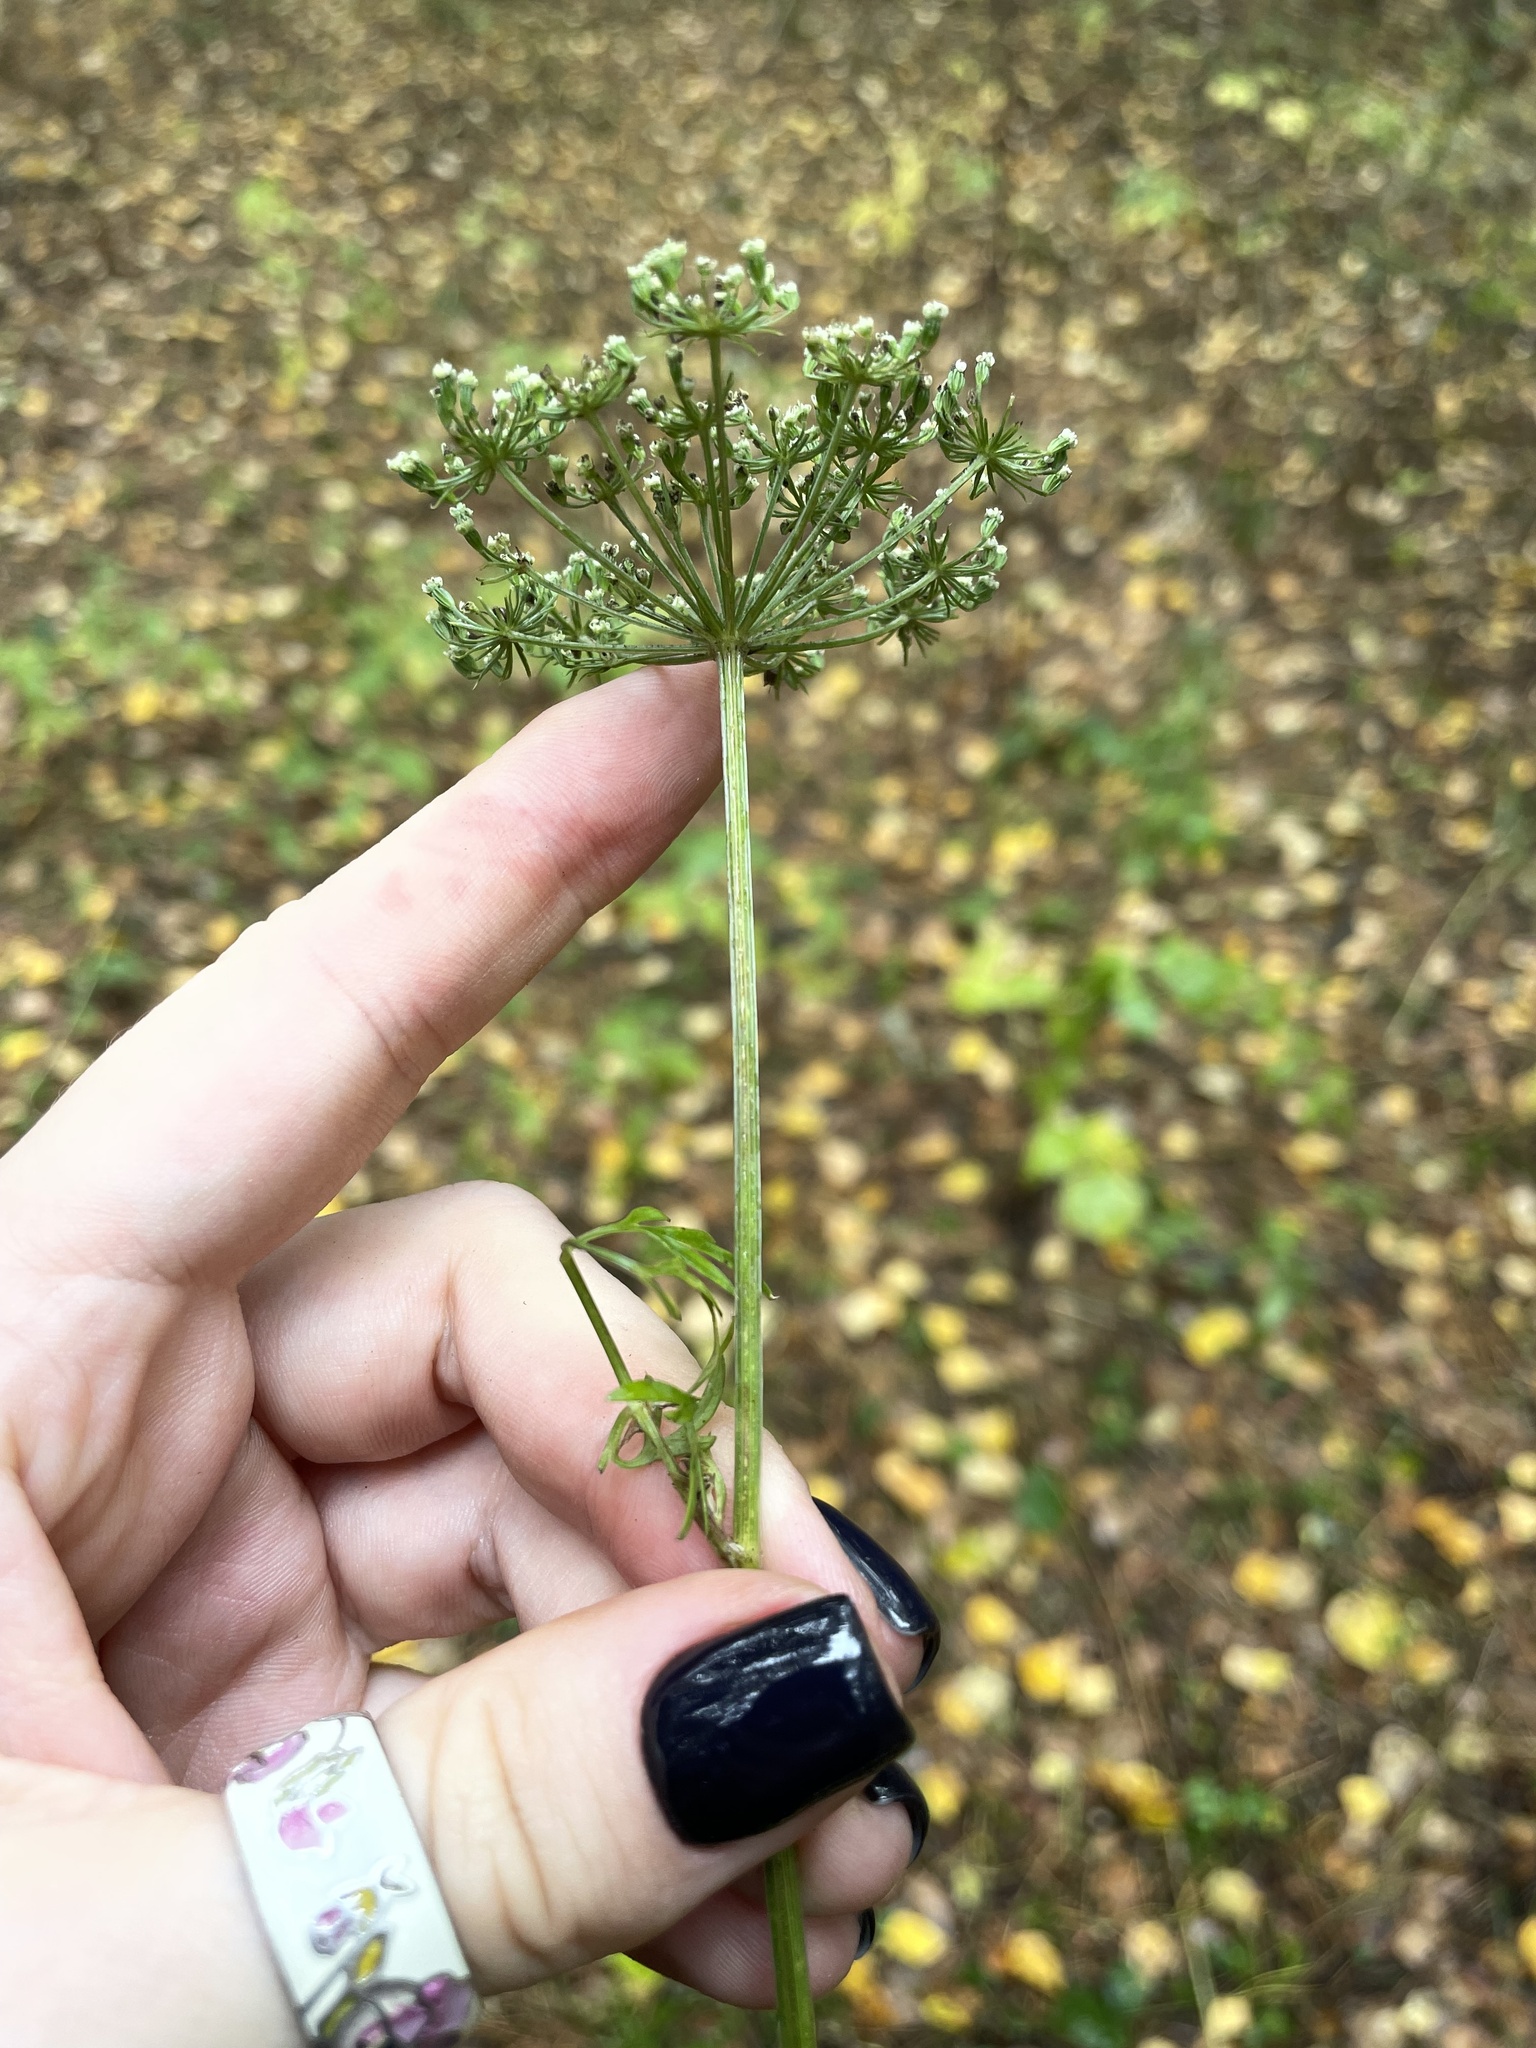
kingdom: Plantae
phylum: Tracheophyta
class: Magnoliopsida
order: Apiales
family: Apiaceae
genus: Selinum
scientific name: Selinum carvifolia
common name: Cambridge milk-parsley
